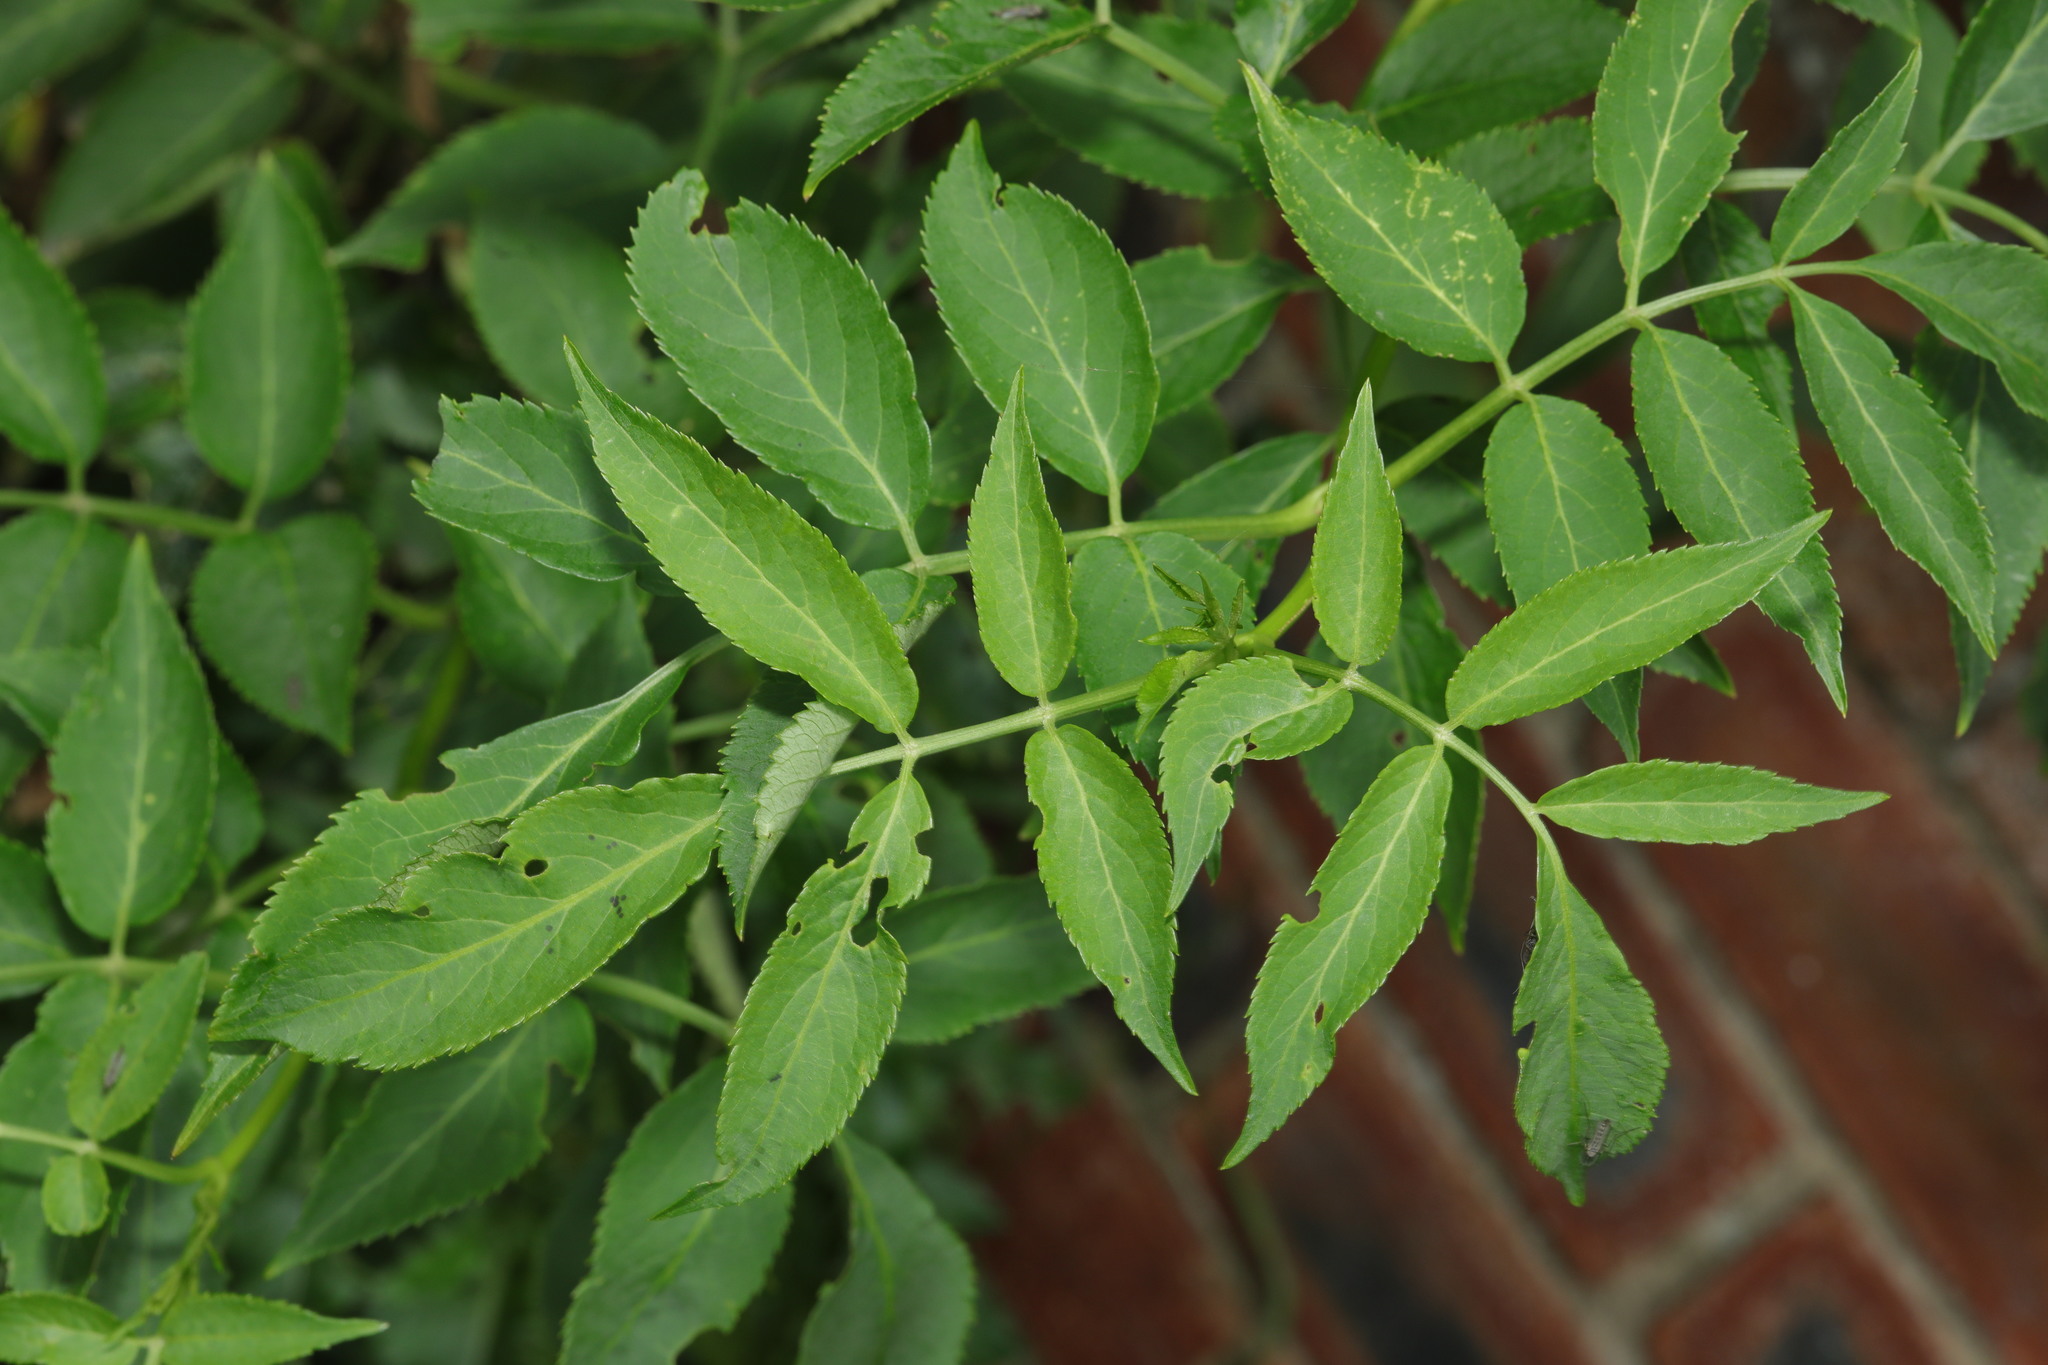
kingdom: Plantae
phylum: Tracheophyta
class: Magnoliopsida
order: Dipsacales
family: Viburnaceae
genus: Sambucus
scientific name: Sambucus nigra
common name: Elder
